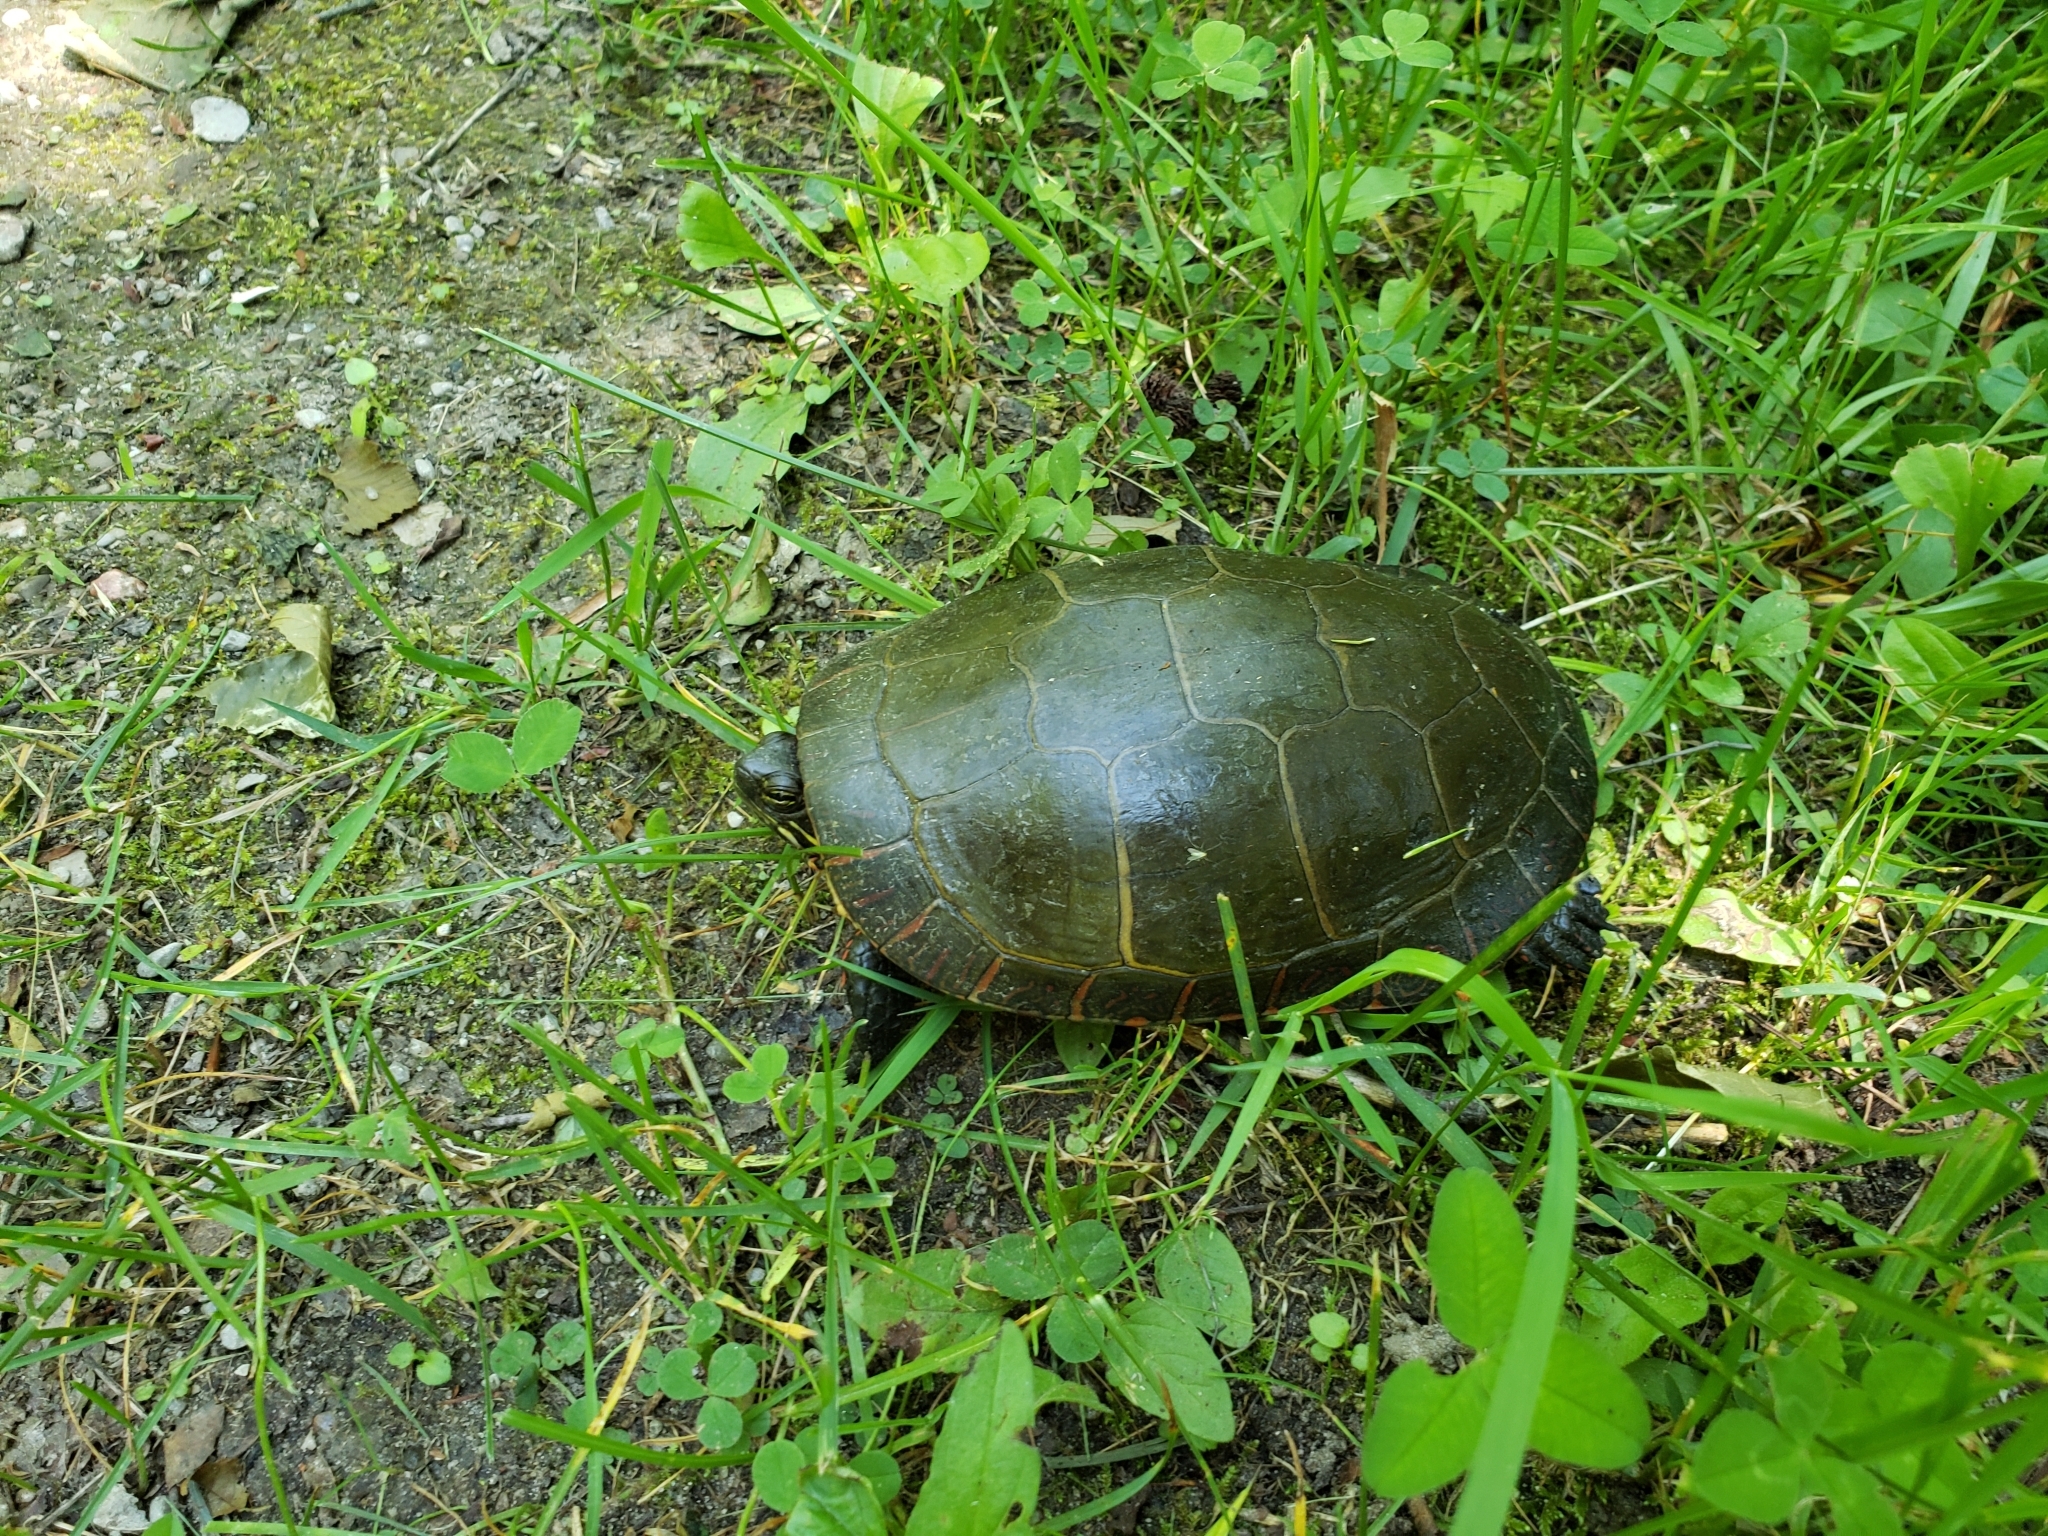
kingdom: Animalia
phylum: Chordata
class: Testudines
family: Emydidae
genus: Chrysemys
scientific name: Chrysemys picta
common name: Painted turtle
